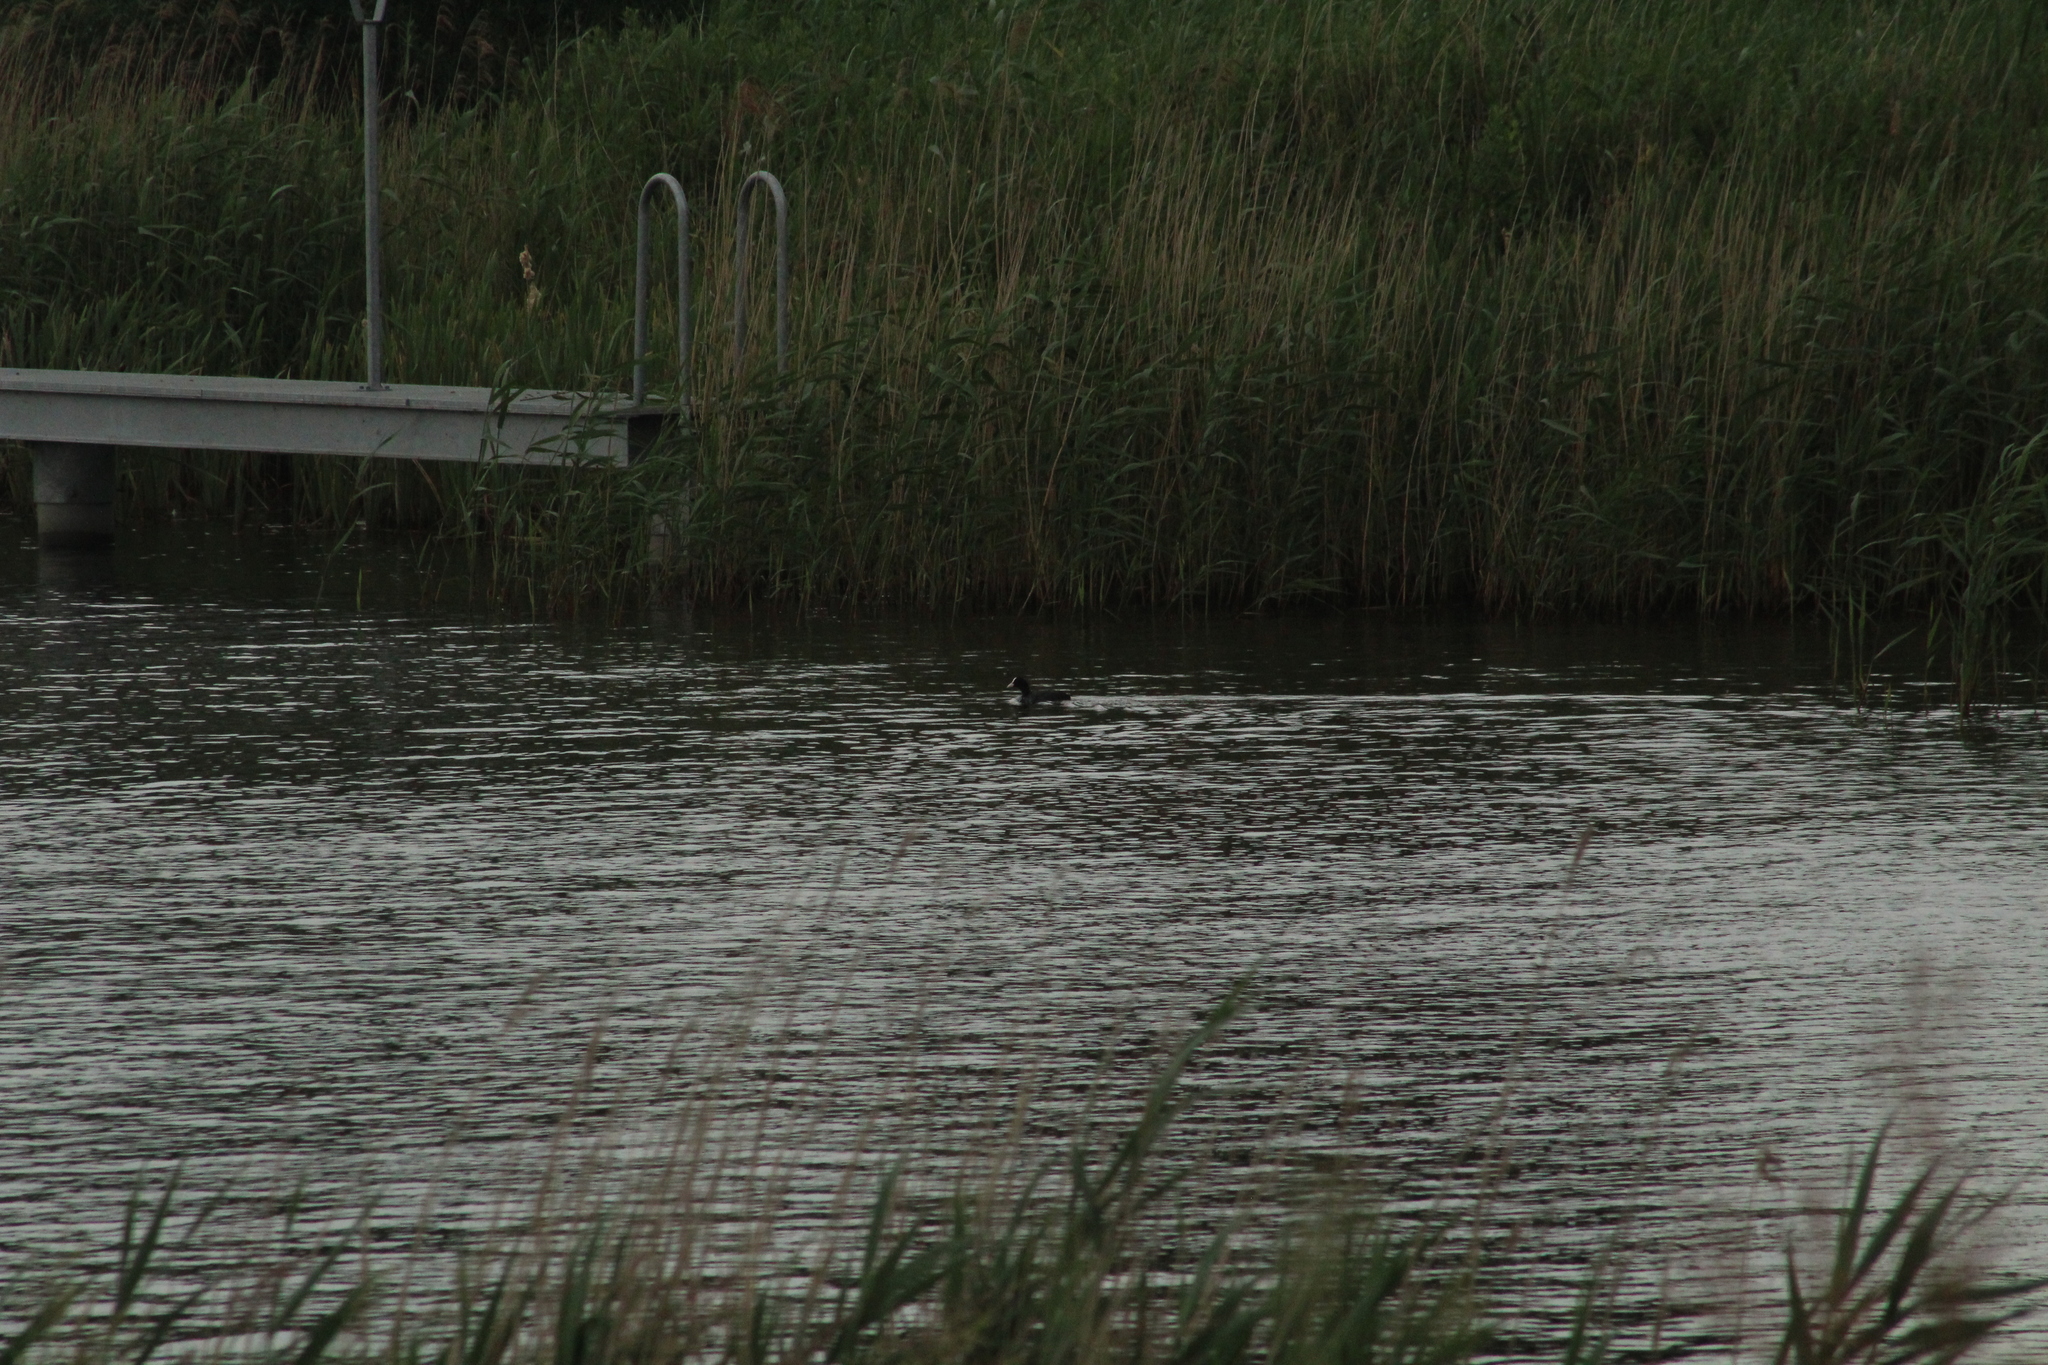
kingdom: Animalia
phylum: Chordata
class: Aves
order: Gruiformes
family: Rallidae
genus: Fulica
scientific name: Fulica atra
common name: Eurasian coot
